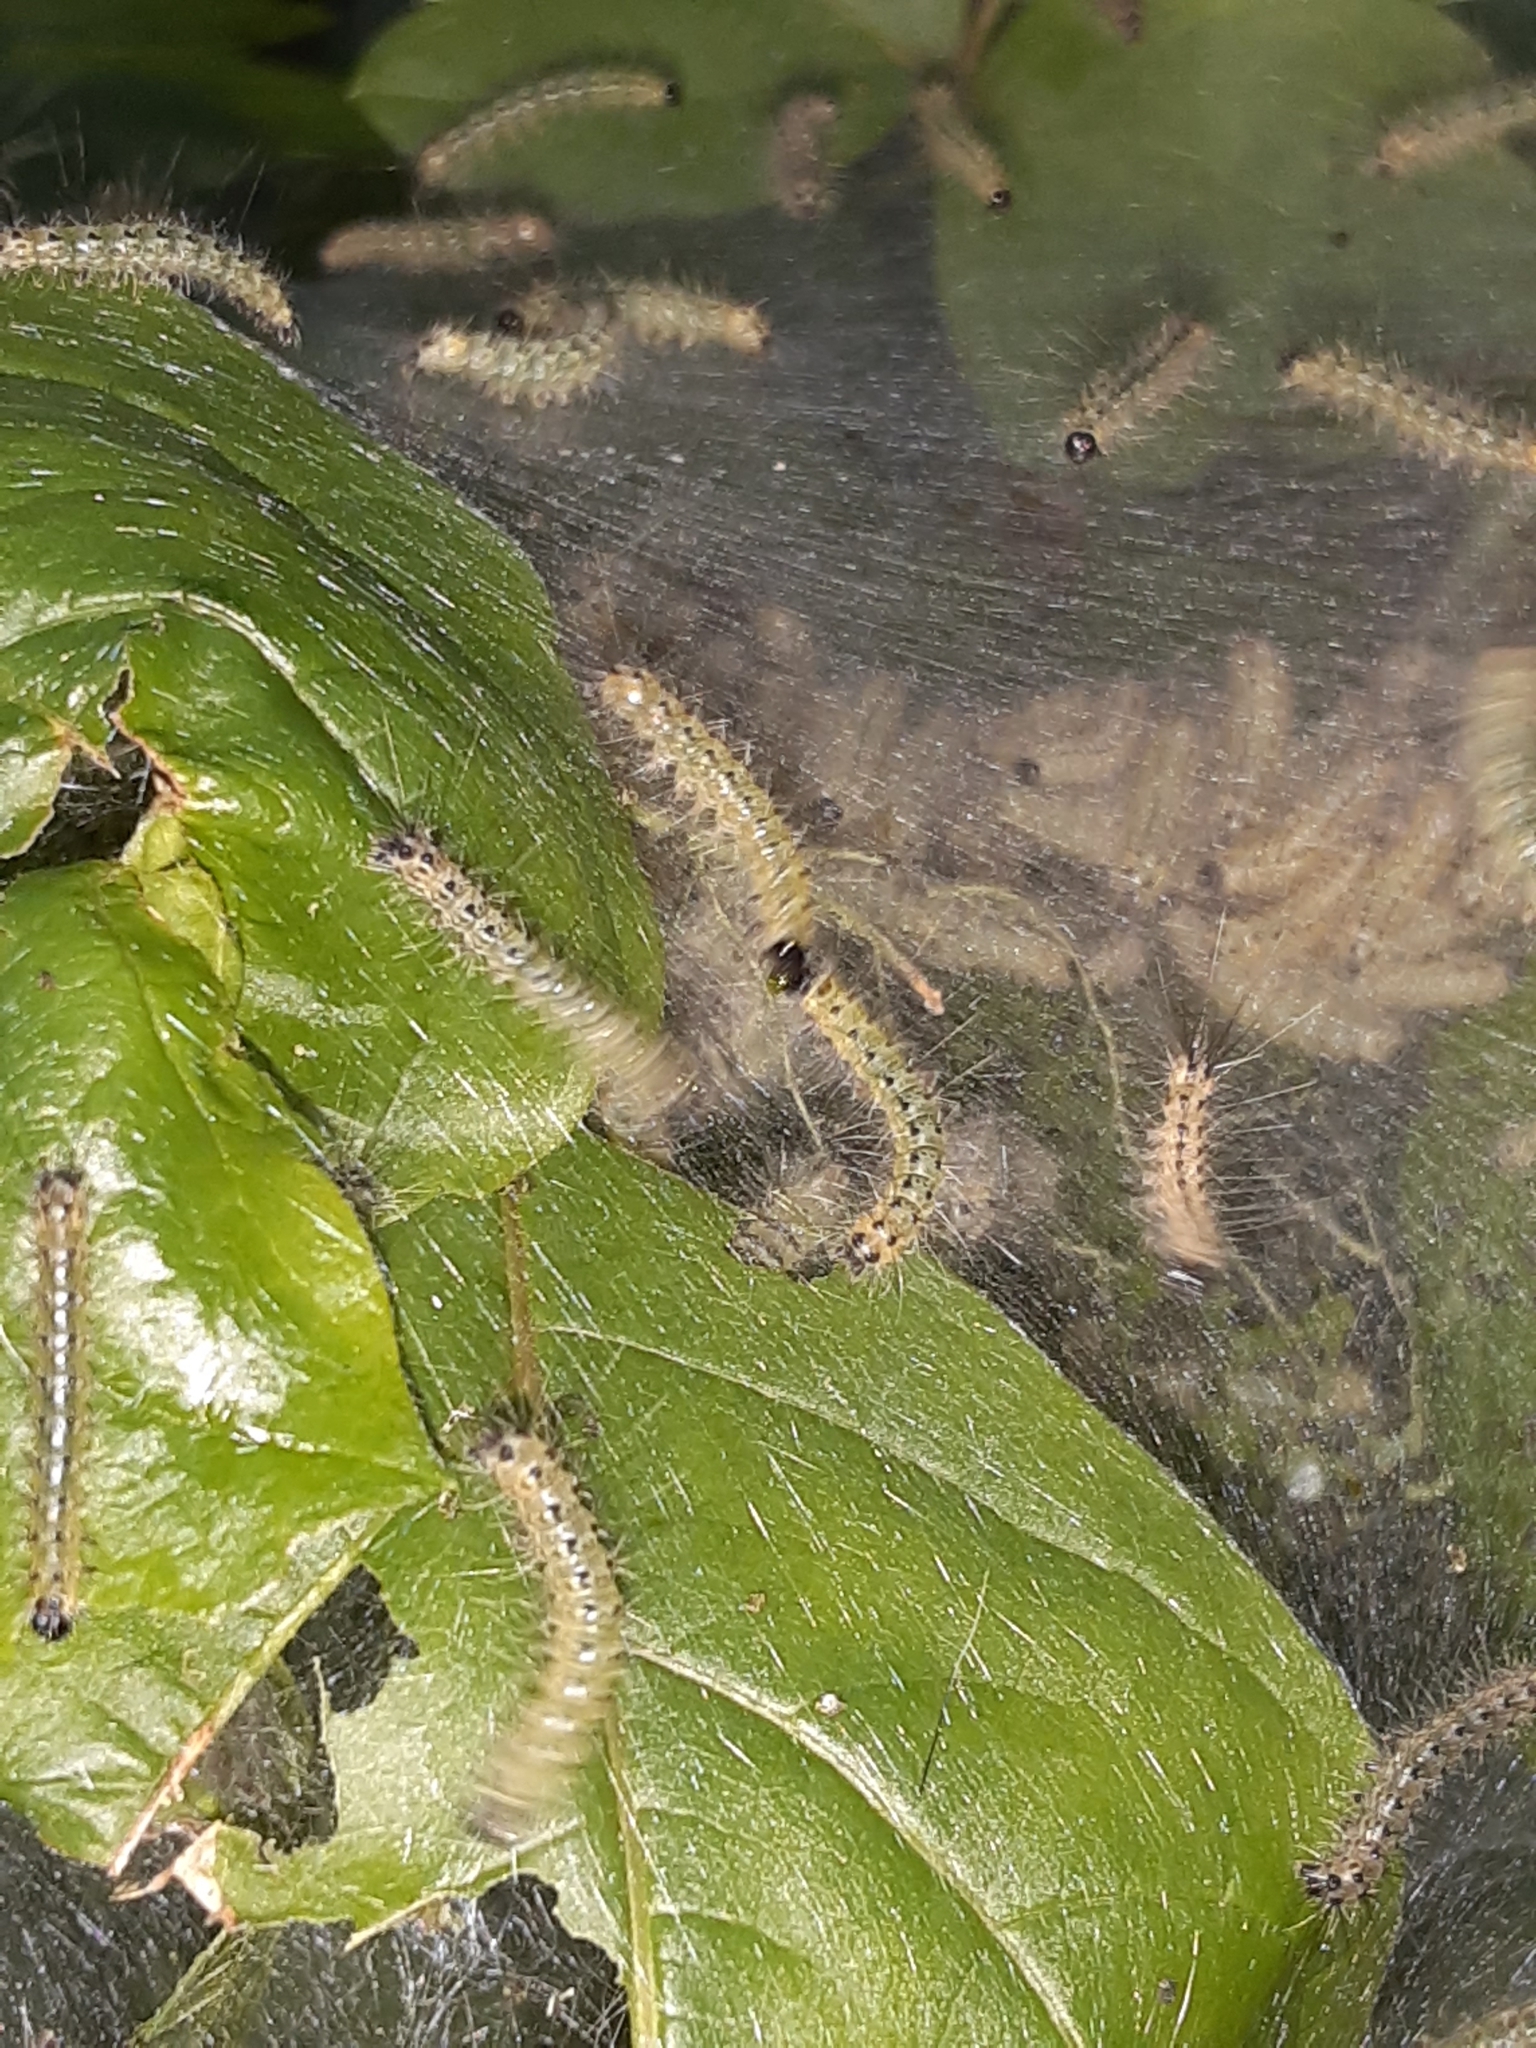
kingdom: Animalia
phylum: Arthropoda
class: Insecta
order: Lepidoptera
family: Erebidae
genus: Hyphantria
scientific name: Hyphantria cunea
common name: American white moth
